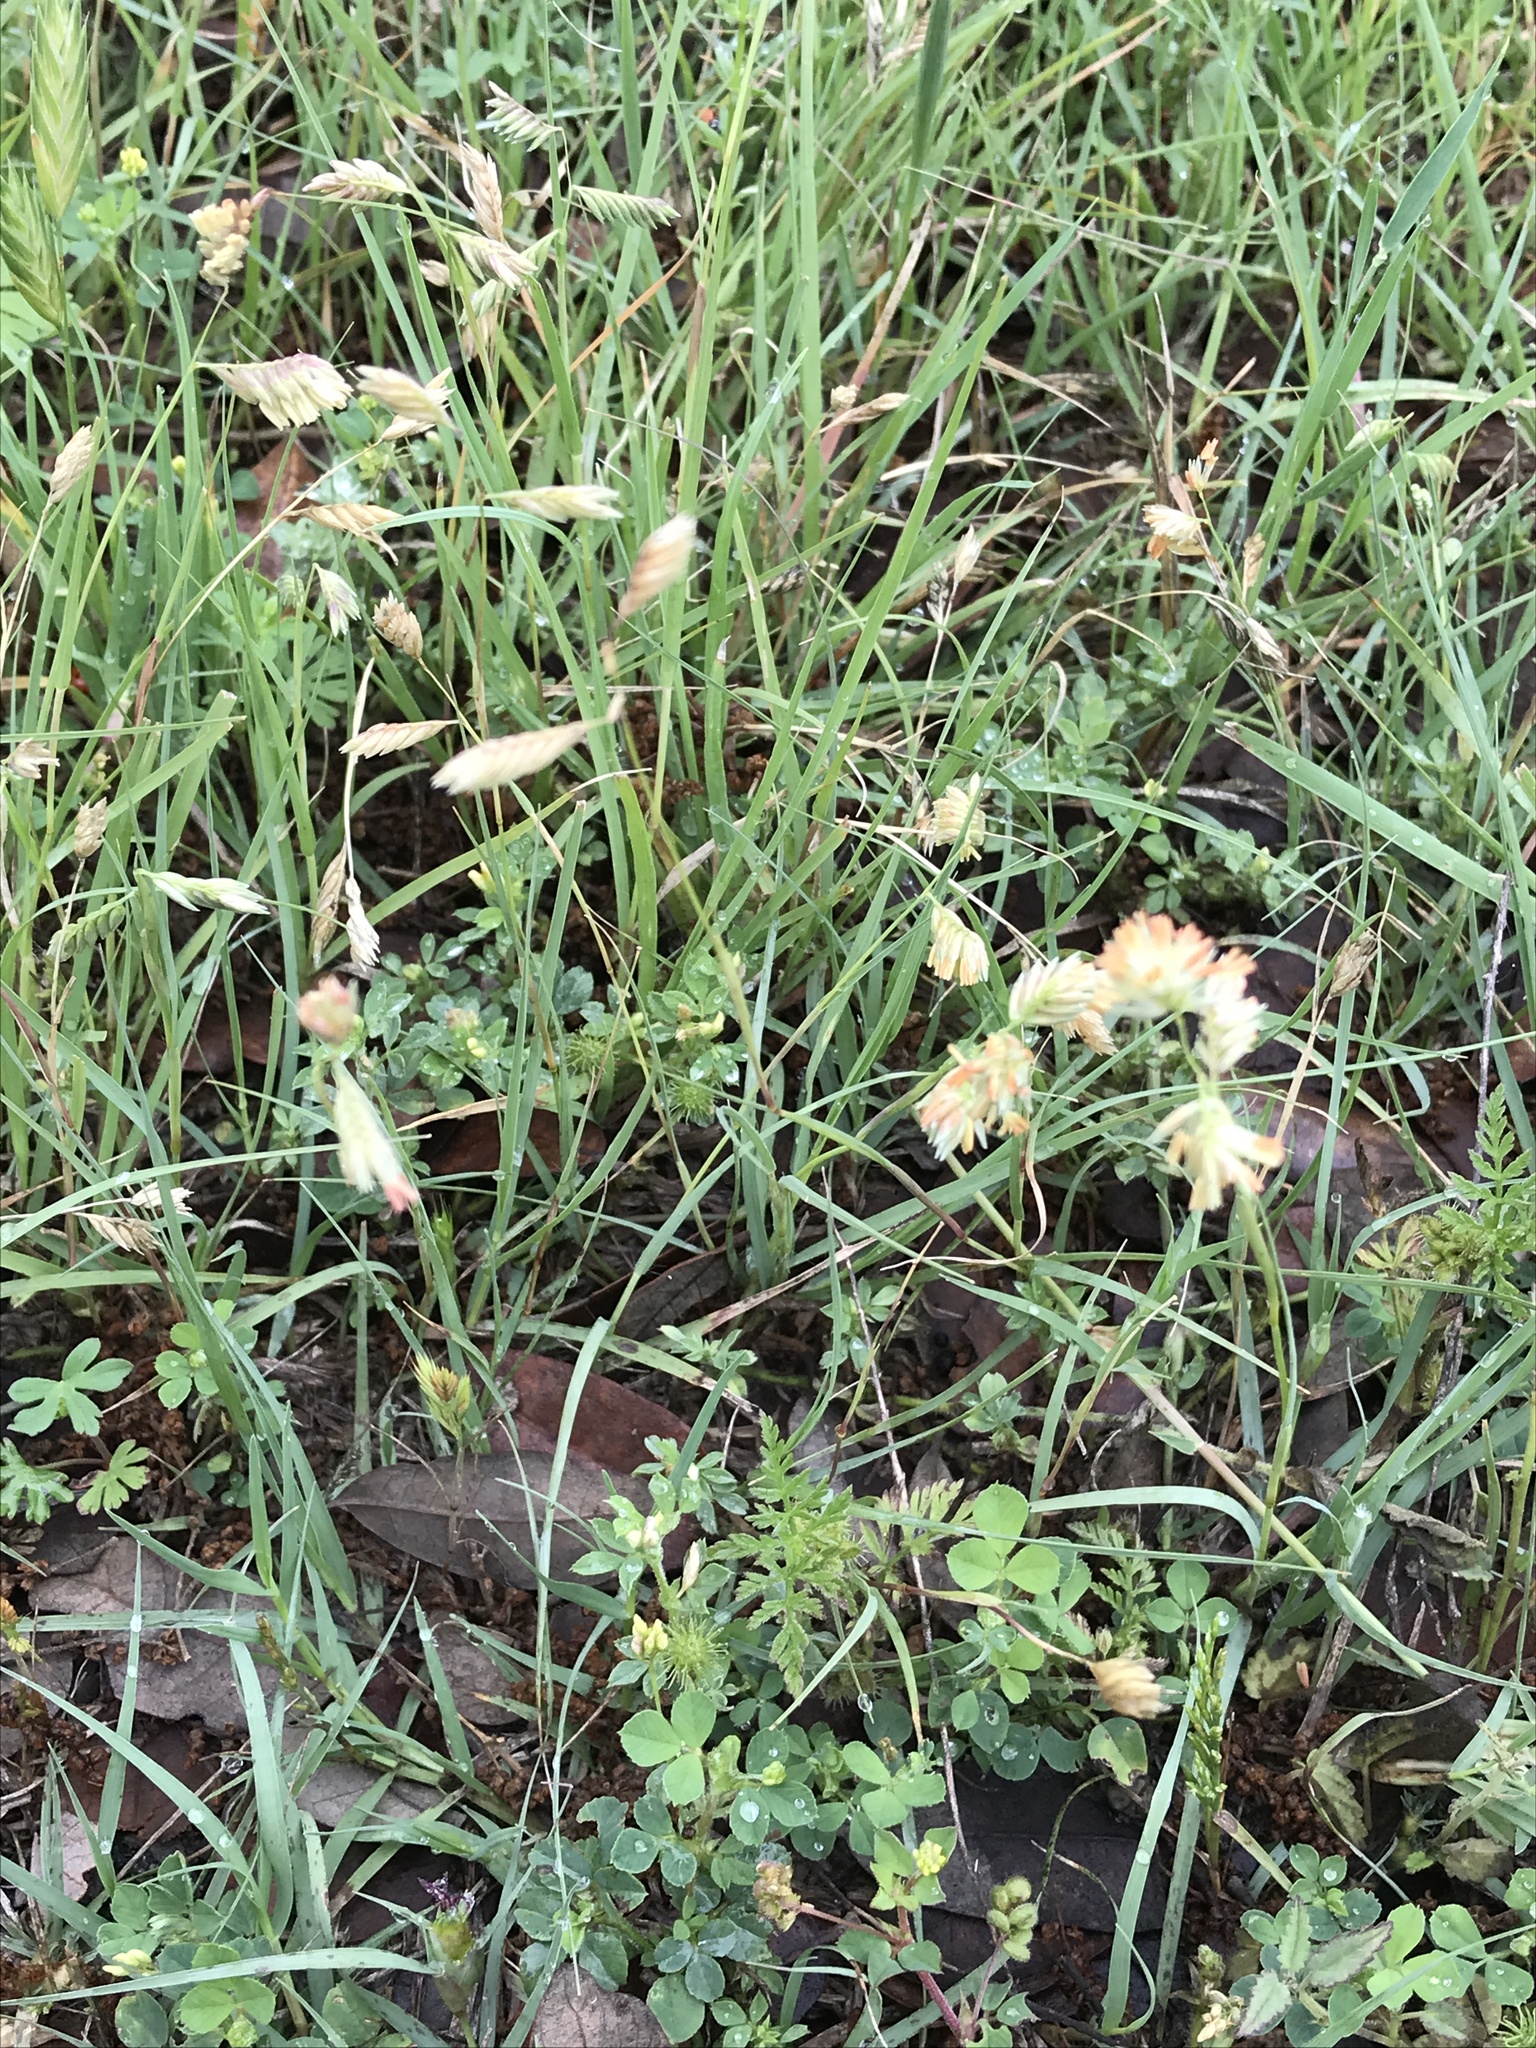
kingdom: Plantae
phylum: Tracheophyta
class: Liliopsida
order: Poales
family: Poaceae
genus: Bouteloua
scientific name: Bouteloua dactyloides
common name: Buffalo grass
